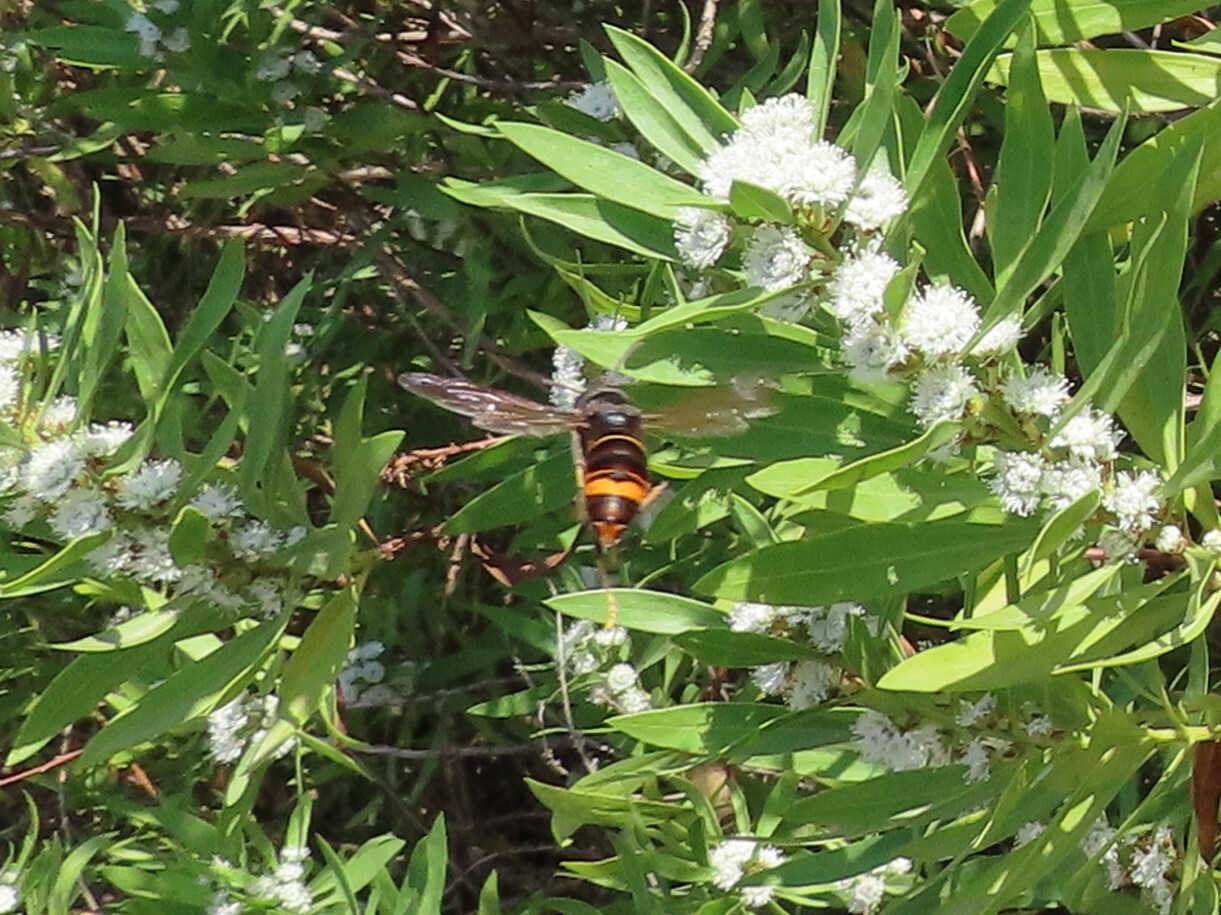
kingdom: Animalia
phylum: Arthropoda
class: Insecta
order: Hymenoptera
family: Vespidae
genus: Vespa
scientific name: Vespa velutina
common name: Asian hornet
